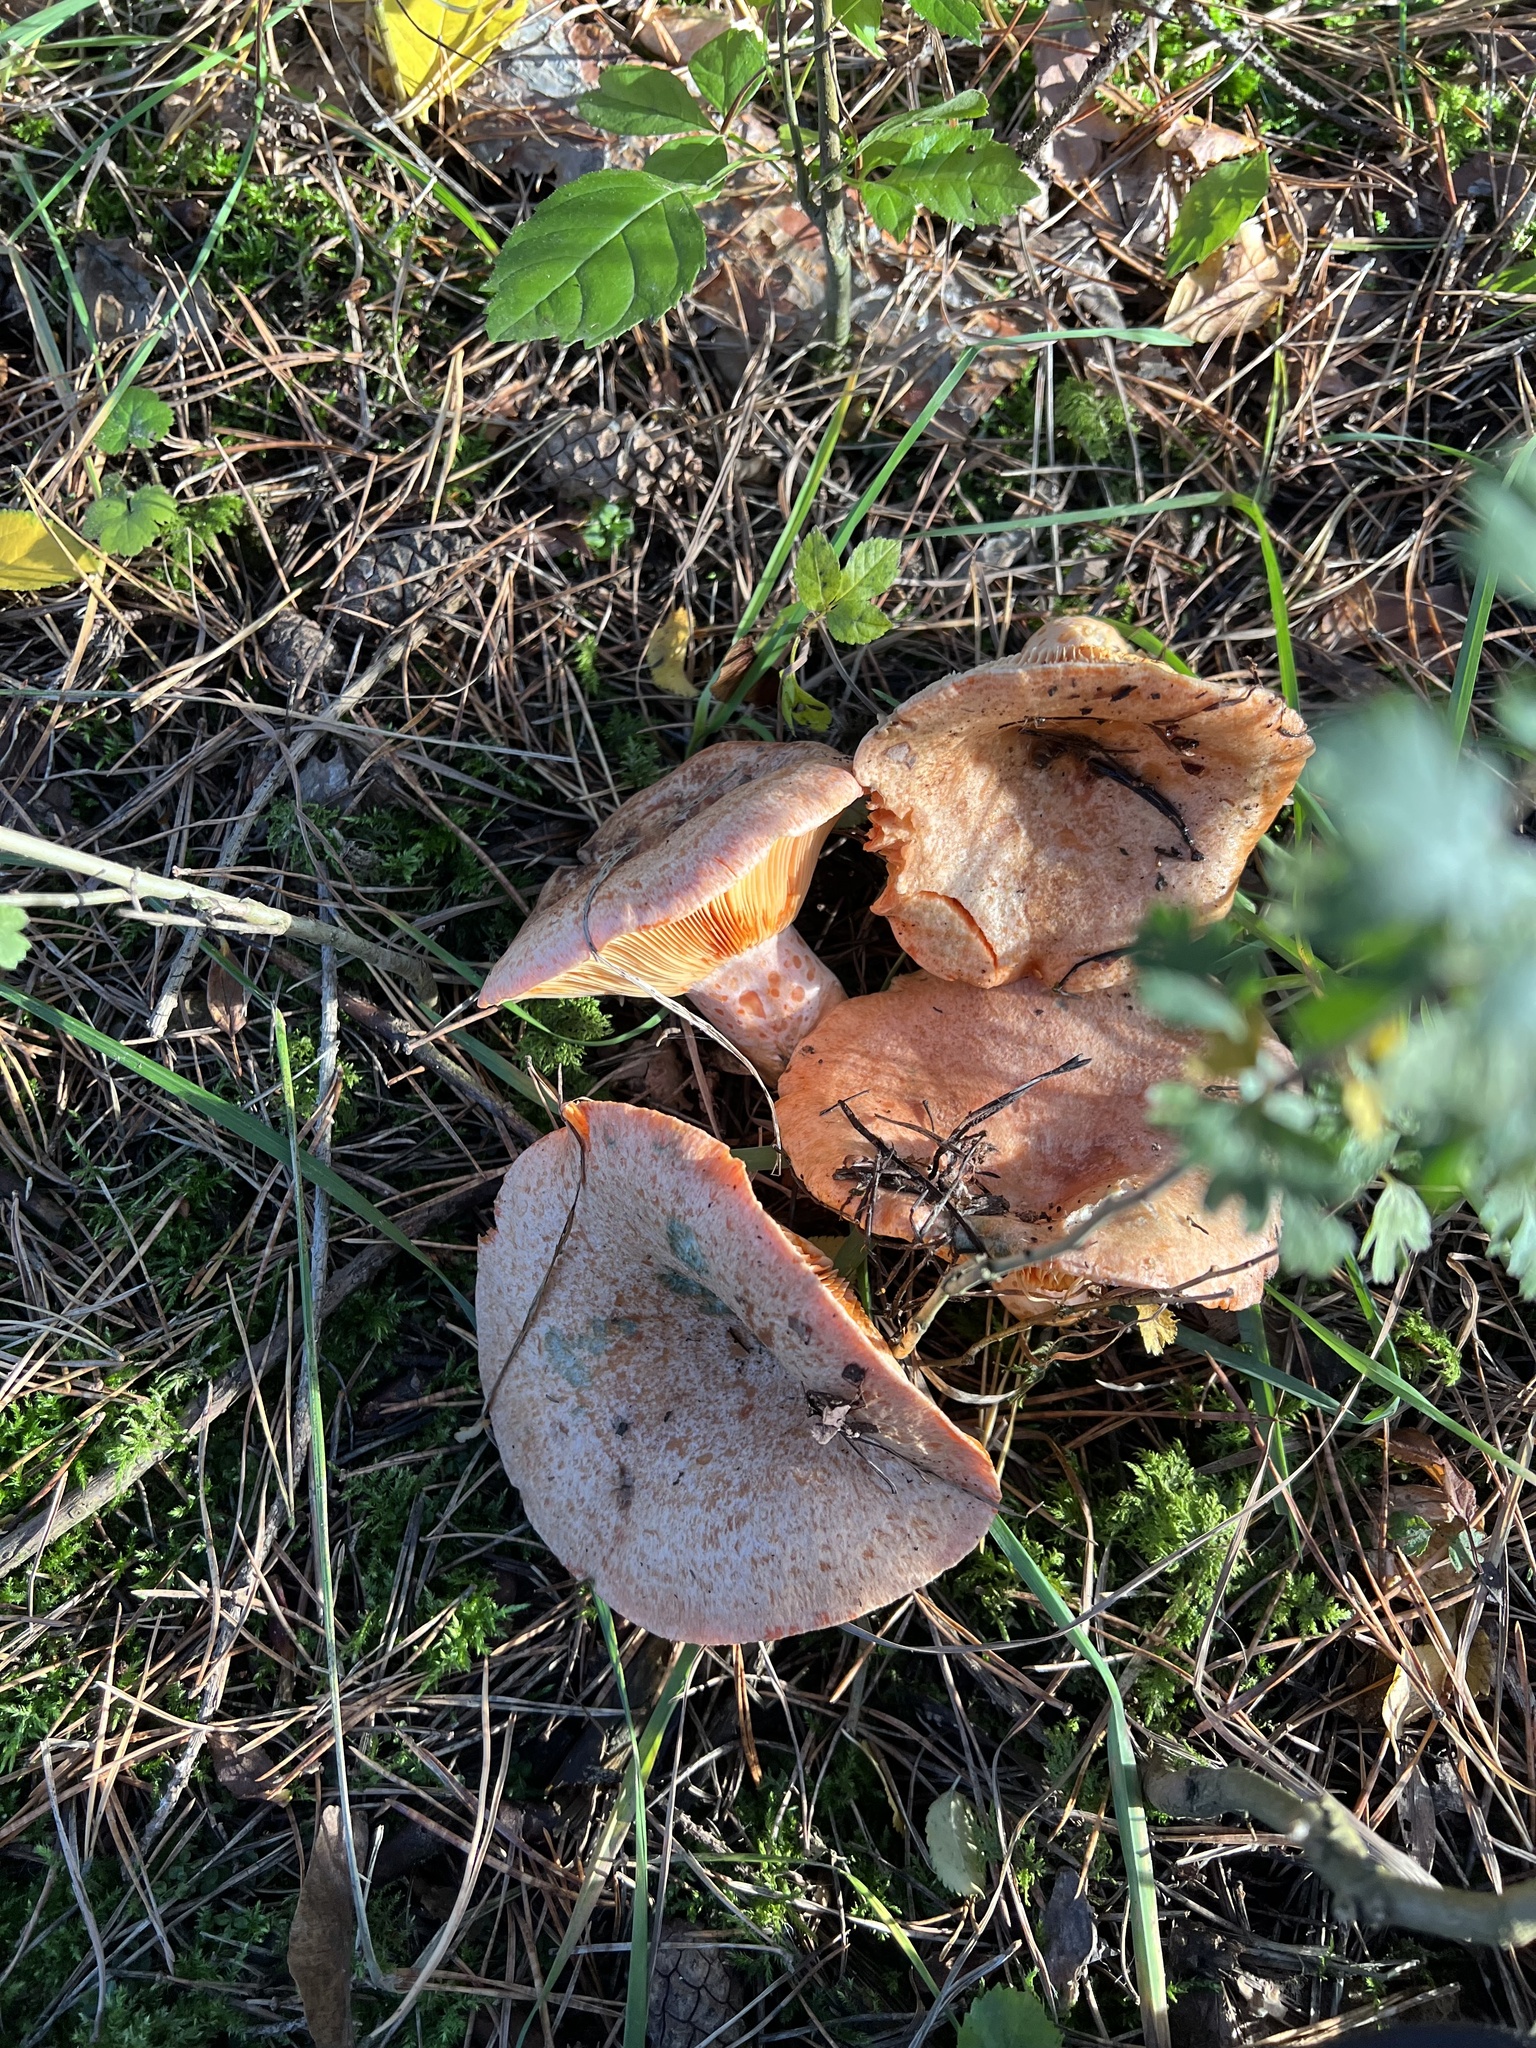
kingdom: Fungi
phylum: Basidiomycota
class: Agaricomycetes
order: Russulales
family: Russulaceae
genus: Lactarius
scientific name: Lactarius deliciosus
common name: Saffron milk-cap
